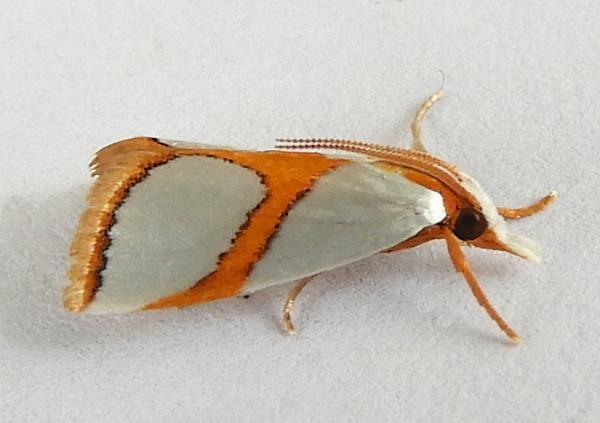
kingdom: Animalia
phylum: Arthropoda
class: Insecta
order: Lepidoptera
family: Crambidae
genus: Argyria
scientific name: Argyria auratella
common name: Curve-lined argyria moth
